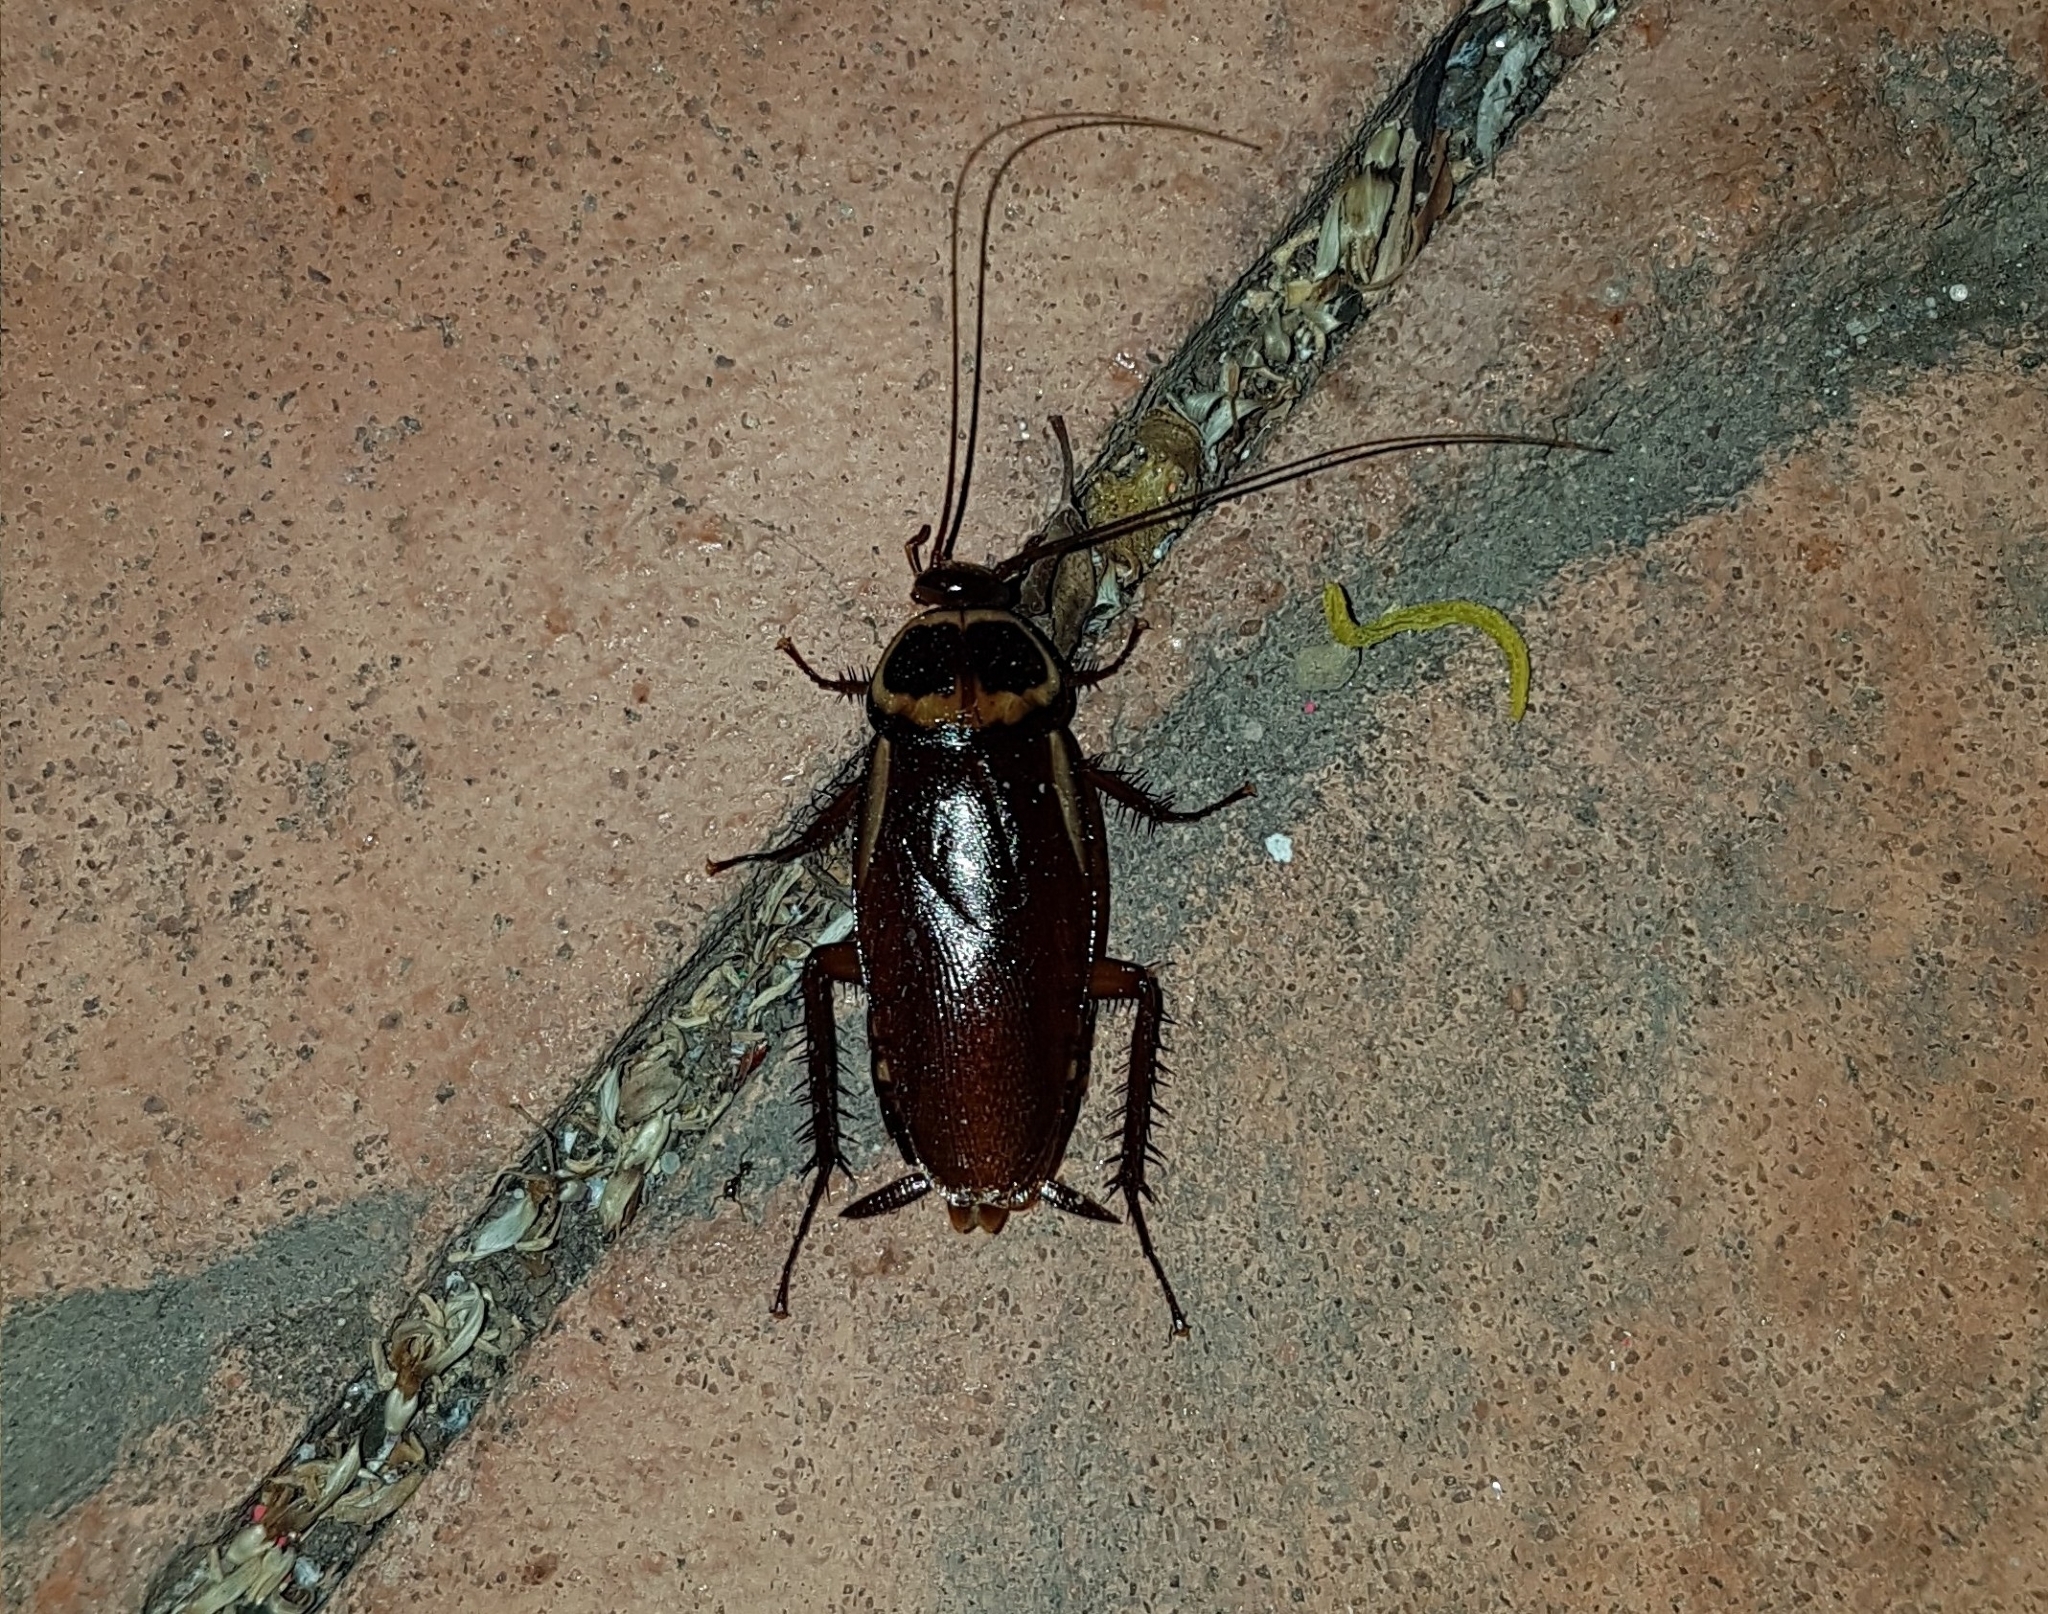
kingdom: Animalia
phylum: Arthropoda
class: Insecta
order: Blattodea
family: Blattidae
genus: Periplaneta
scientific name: Periplaneta australasiae
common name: Australian cockroach
